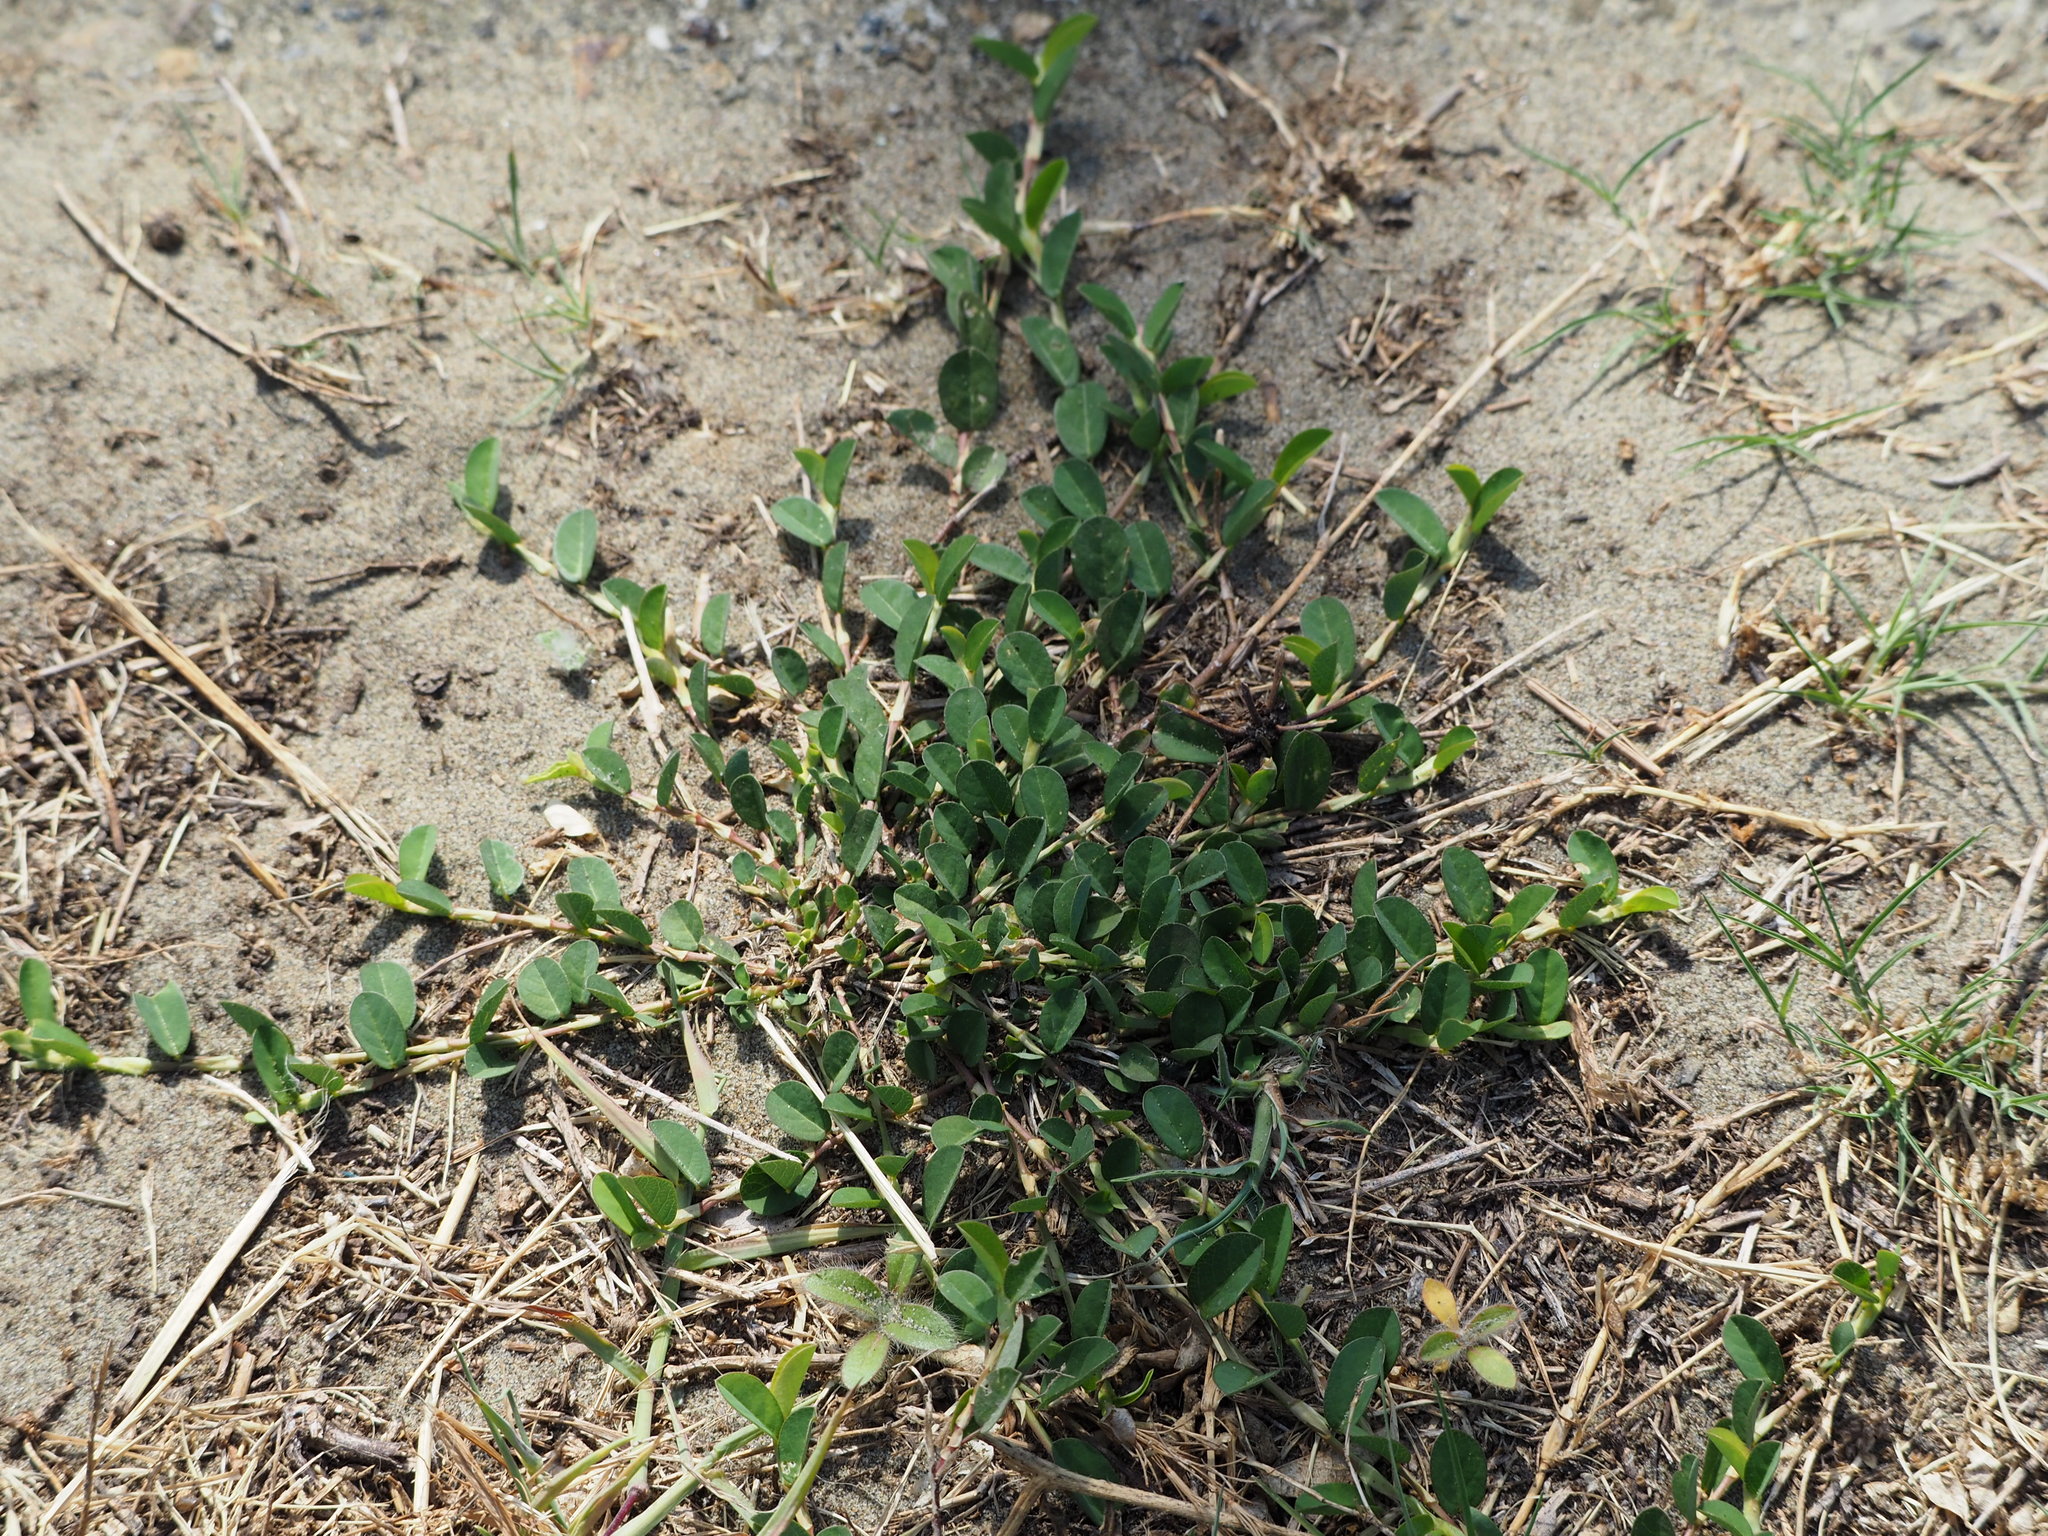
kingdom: Plantae
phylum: Tracheophyta
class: Magnoliopsida
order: Fabales
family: Fabaceae
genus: Alysicarpus
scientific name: Alysicarpus vaginalis
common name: White moneywort
